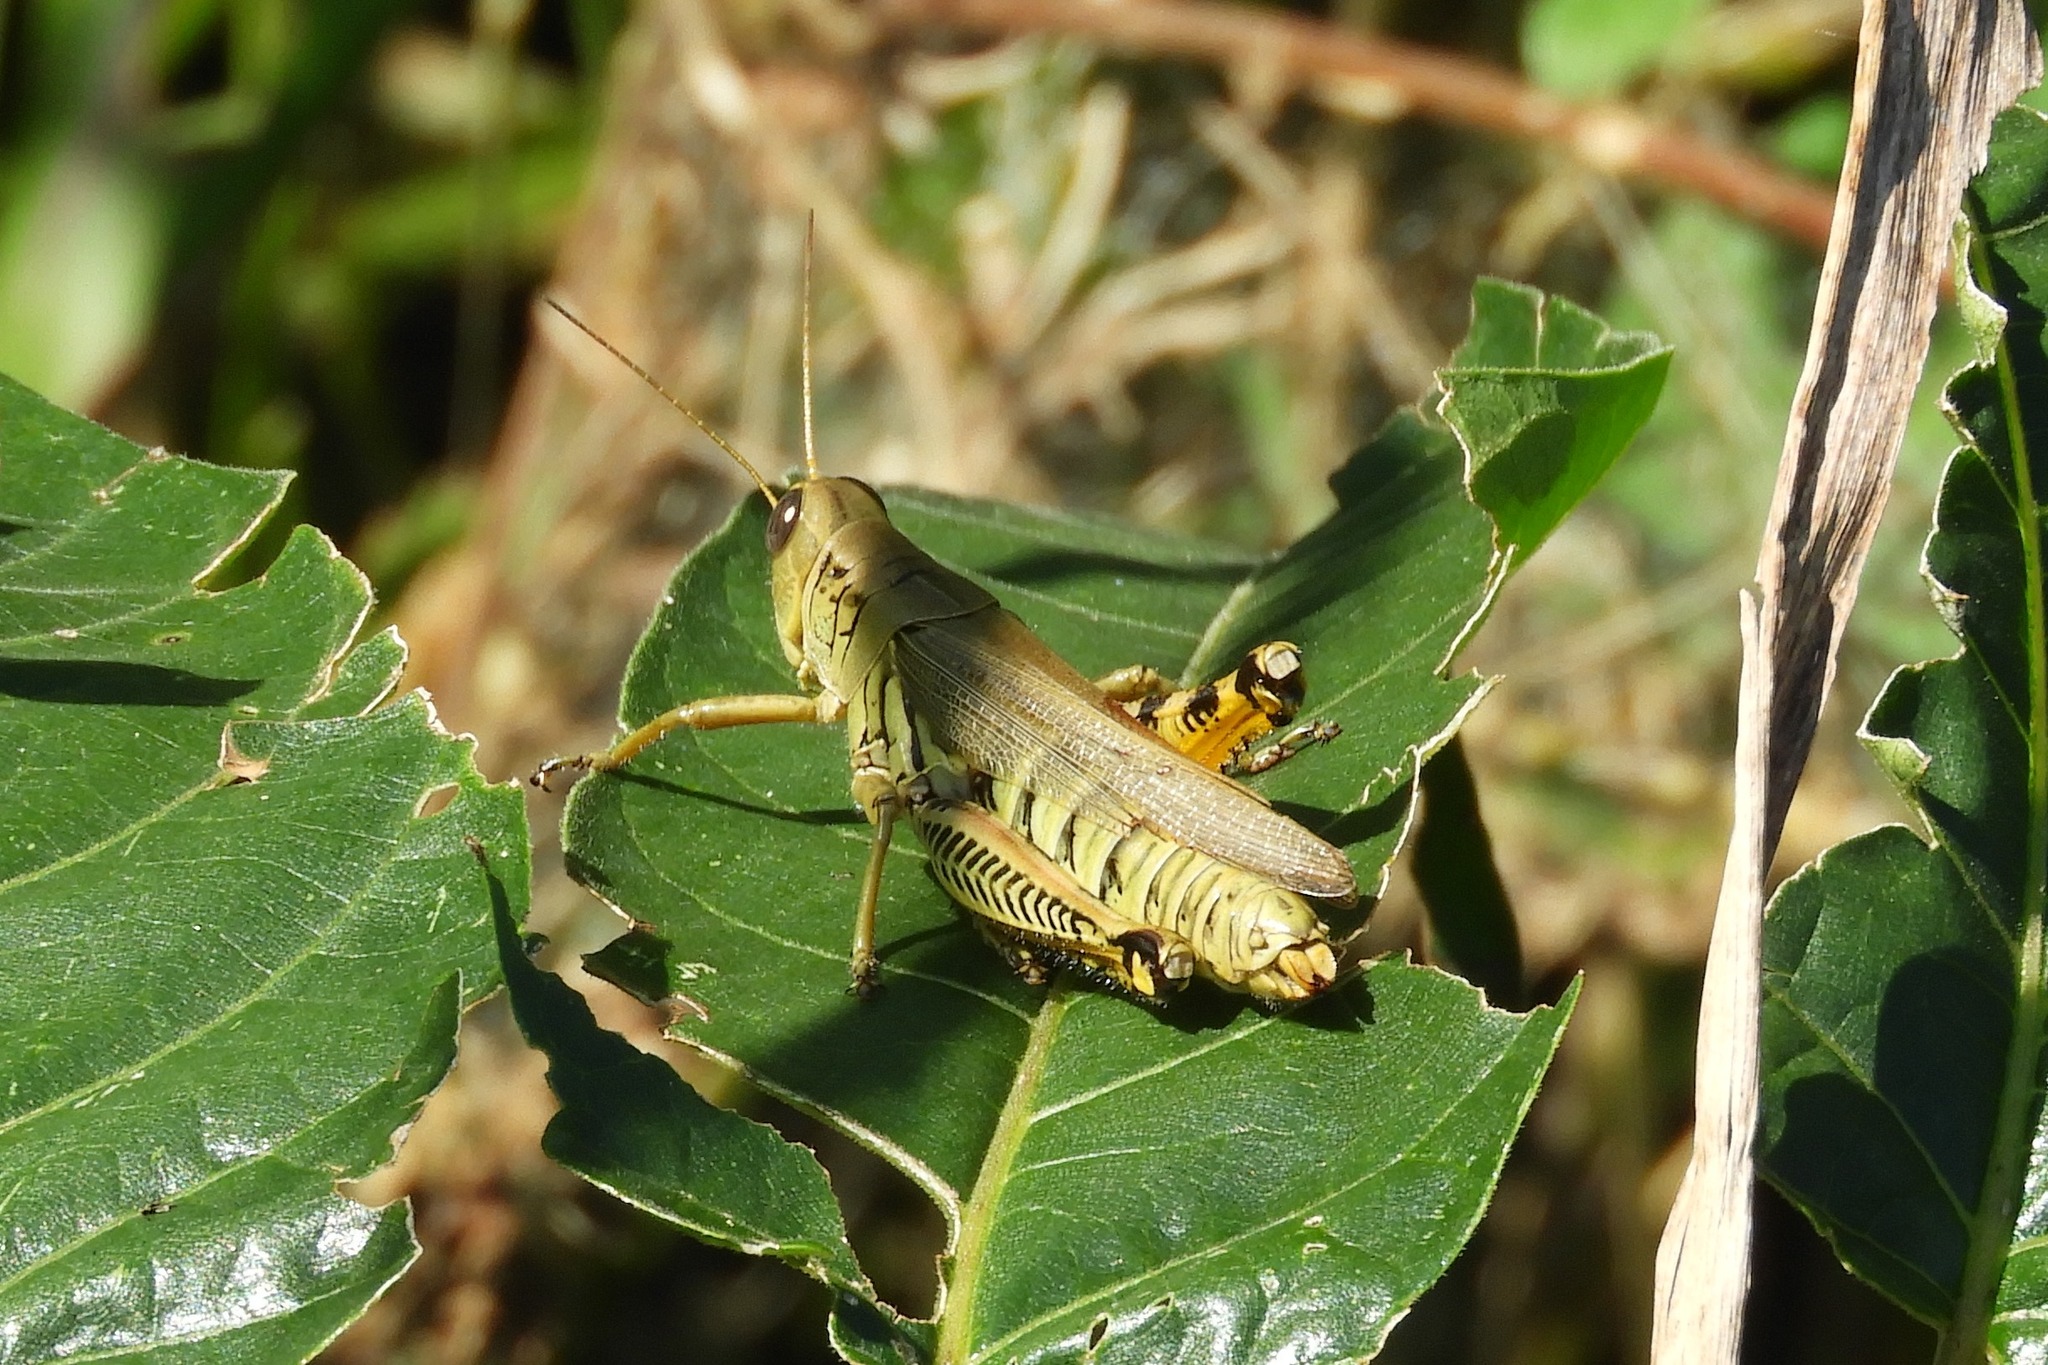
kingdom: Animalia
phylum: Arthropoda
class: Insecta
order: Orthoptera
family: Acrididae
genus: Melanoplus
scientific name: Melanoplus differentialis
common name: Differential grasshopper
